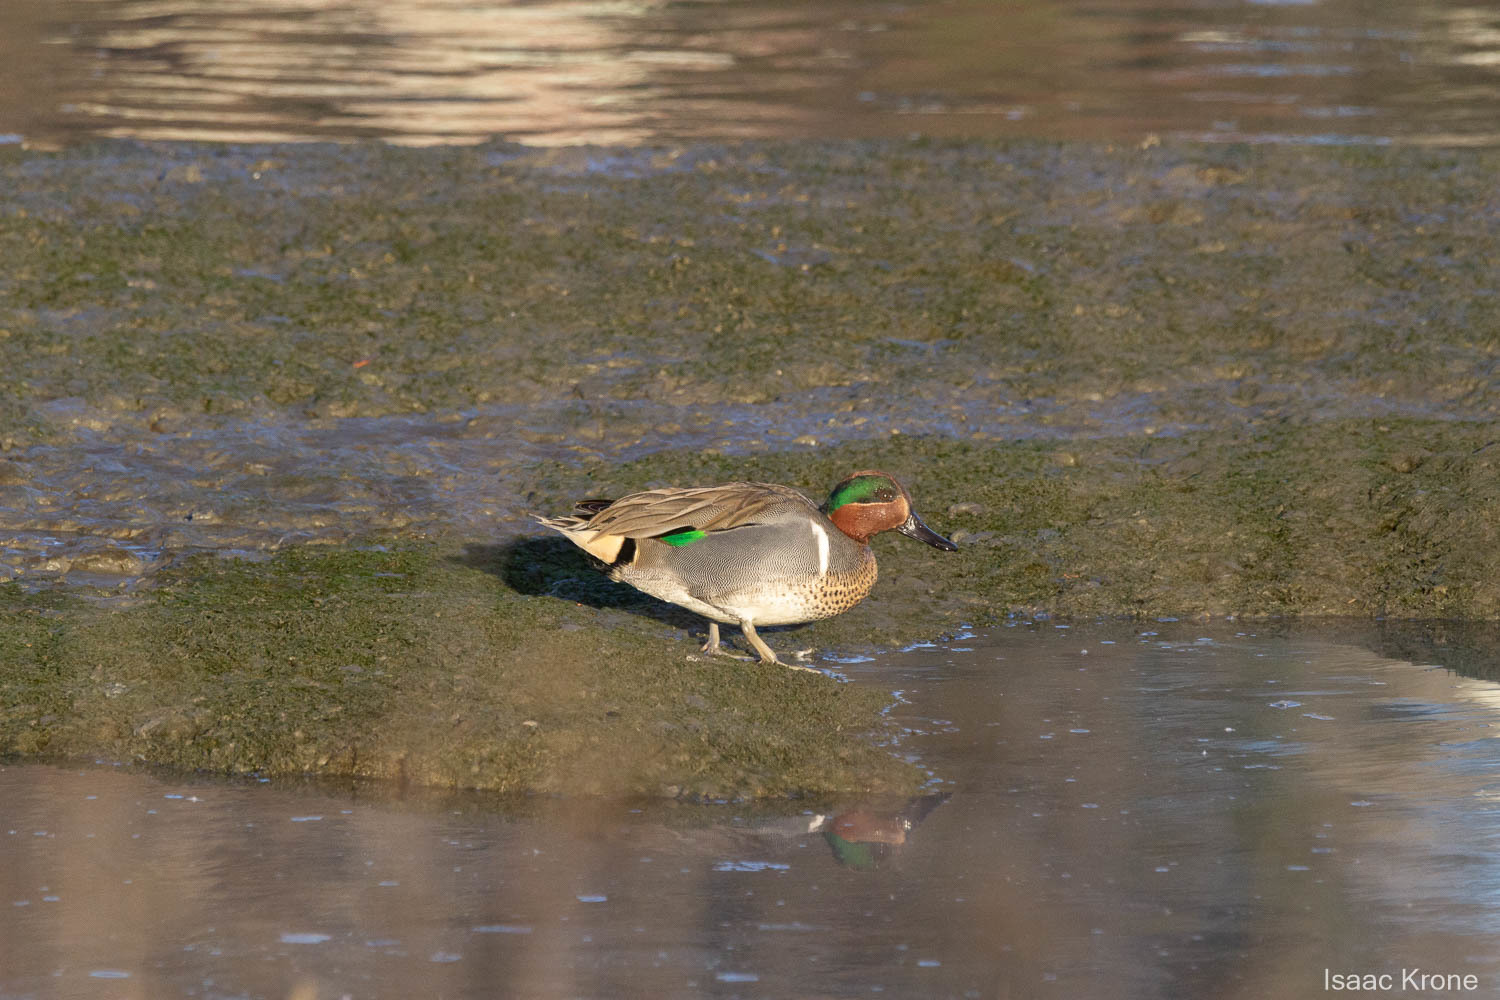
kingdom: Animalia
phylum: Chordata
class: Aves
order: Anseriformes
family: Anatidae
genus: Anas
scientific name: Anas crecca
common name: Eurasian teal
